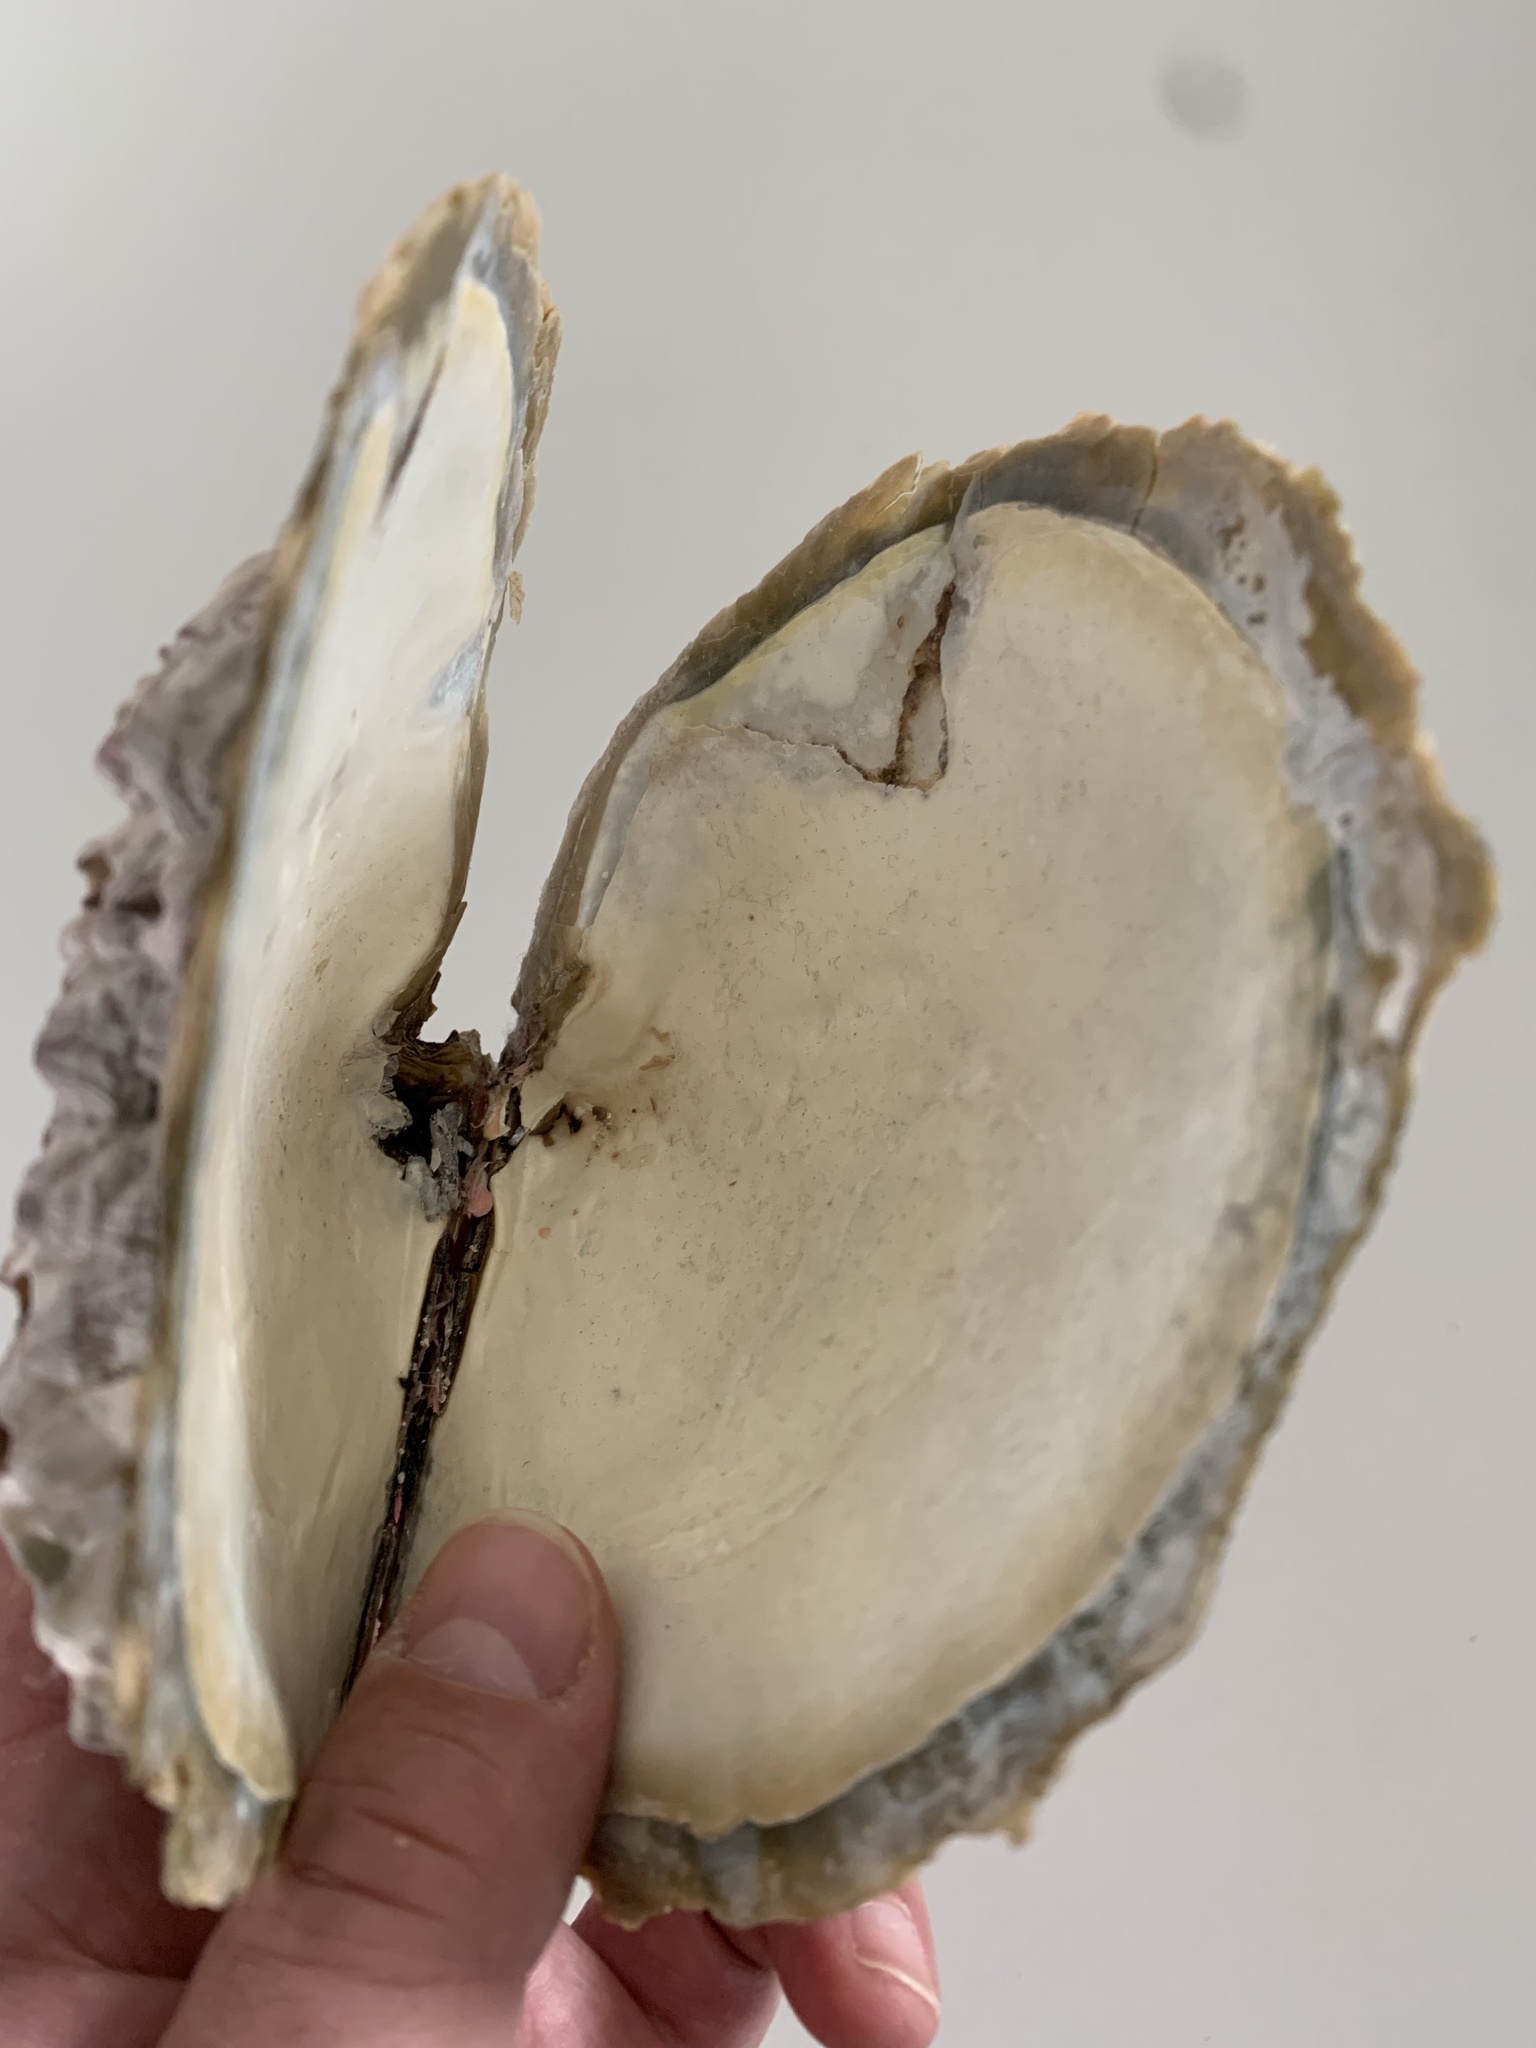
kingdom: Animalia
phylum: Mollusca
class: Bivalvia
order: Ostreida
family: Margaritidae
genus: Pinctada
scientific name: Pinctada margaritifera
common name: Pacific pearl-oyster
